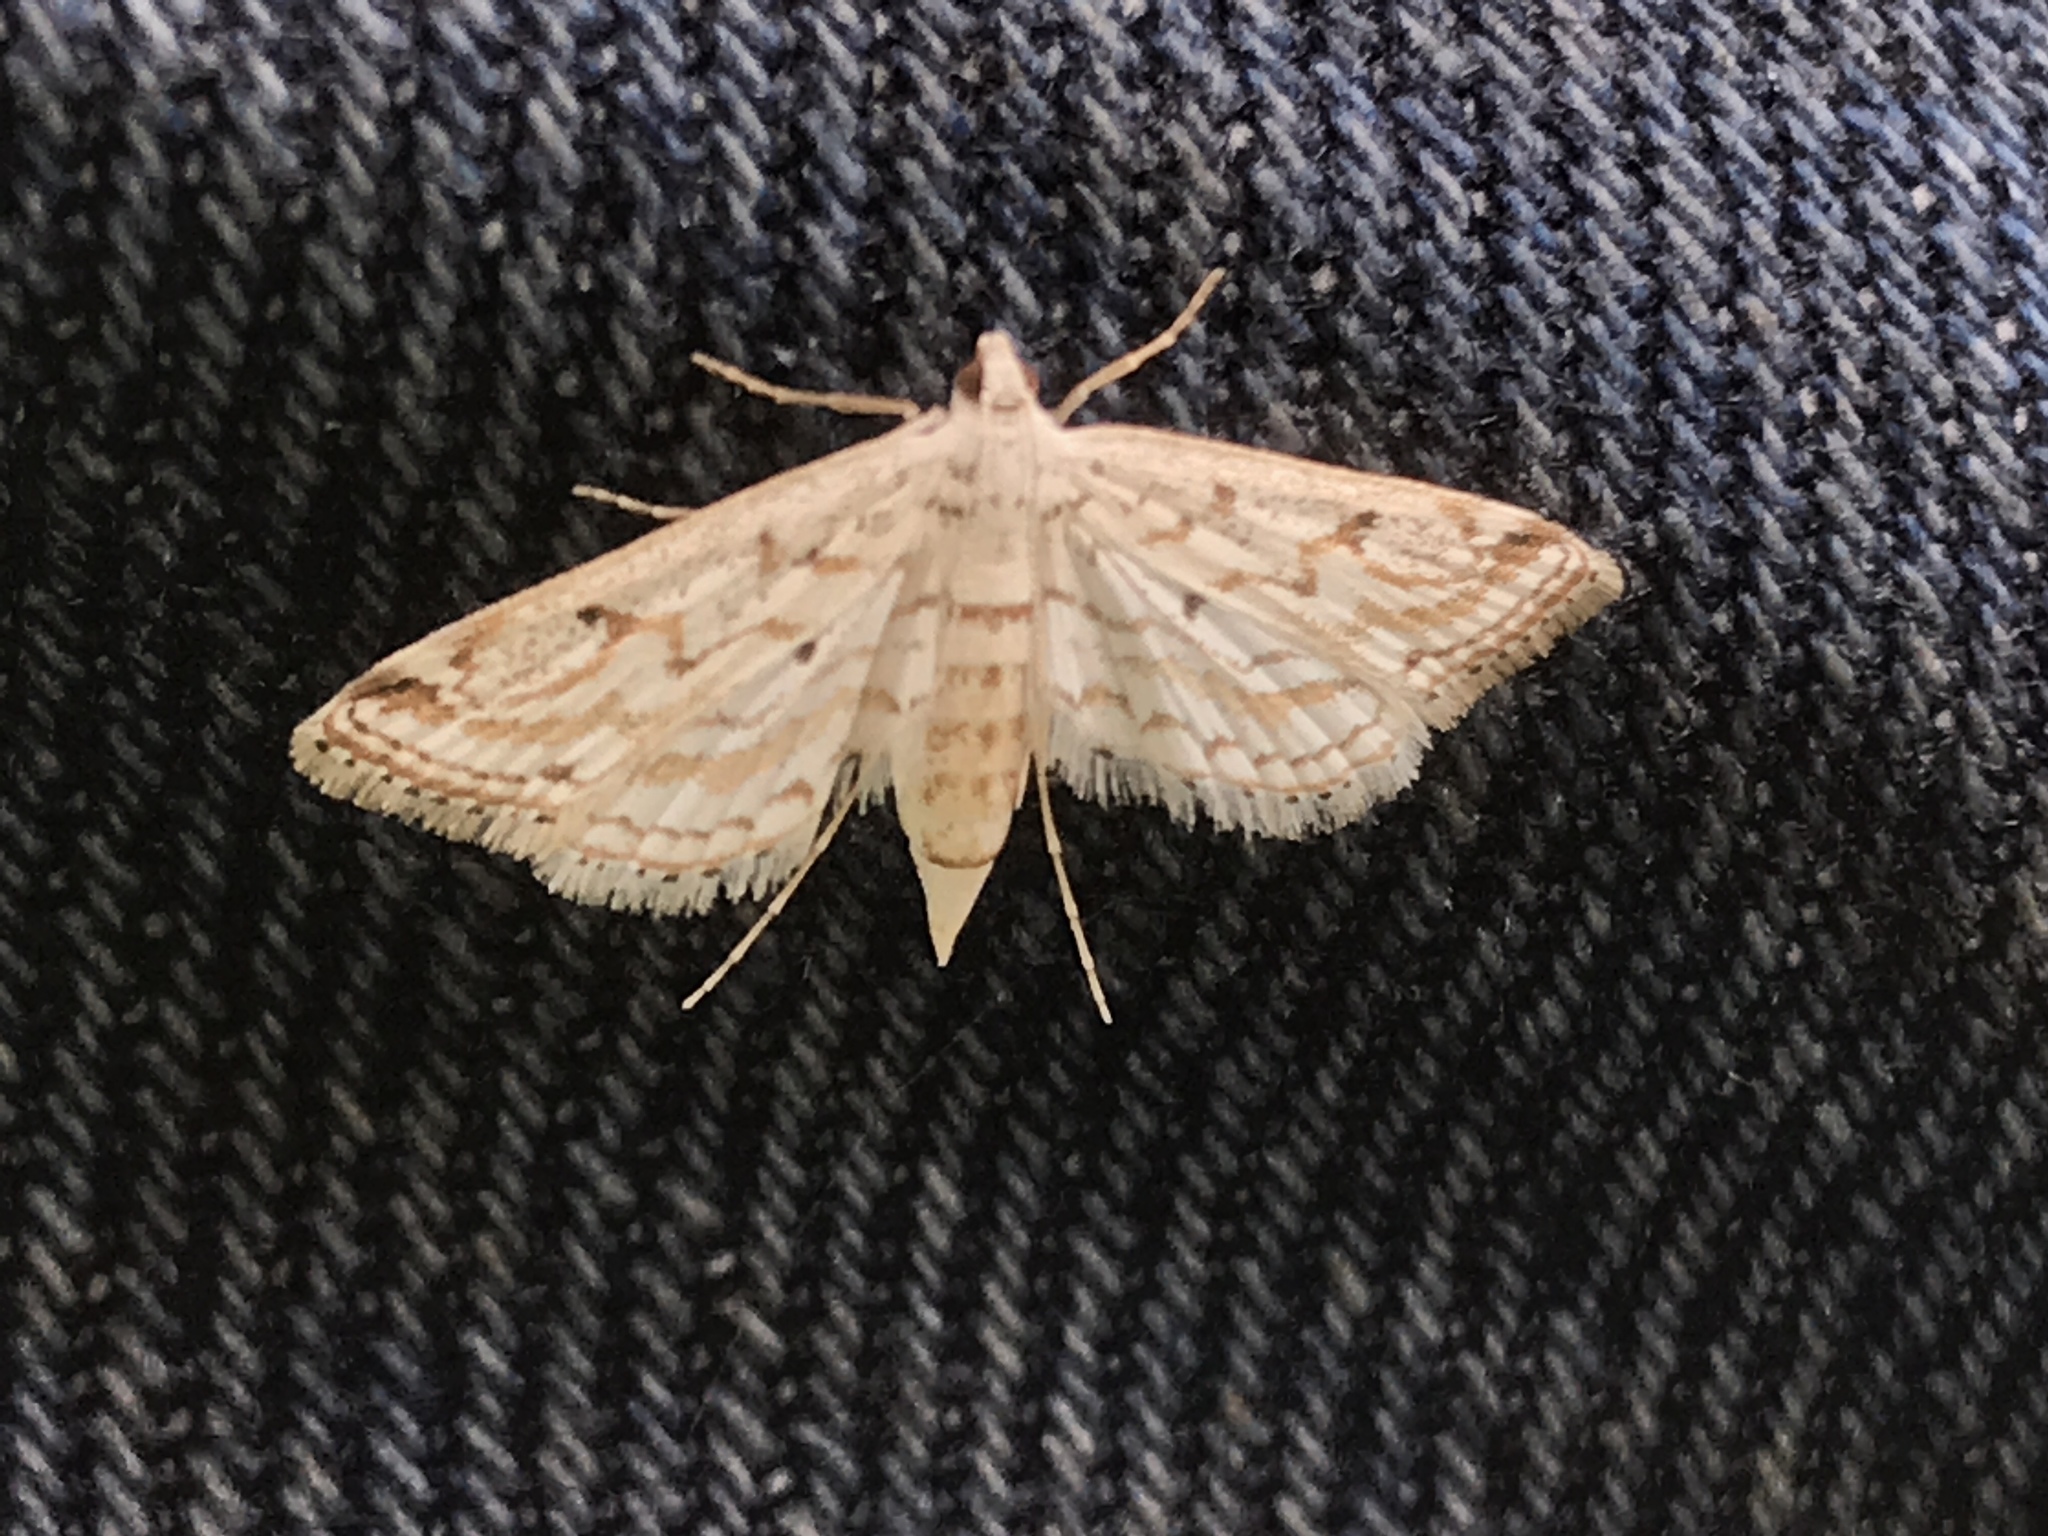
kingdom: Animalia
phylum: Arthropoda
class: Insecta
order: Lepidoptera
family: Crambidae
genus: Parapoynx
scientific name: Parapoynx allionealis
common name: Bladderwort casemaker
